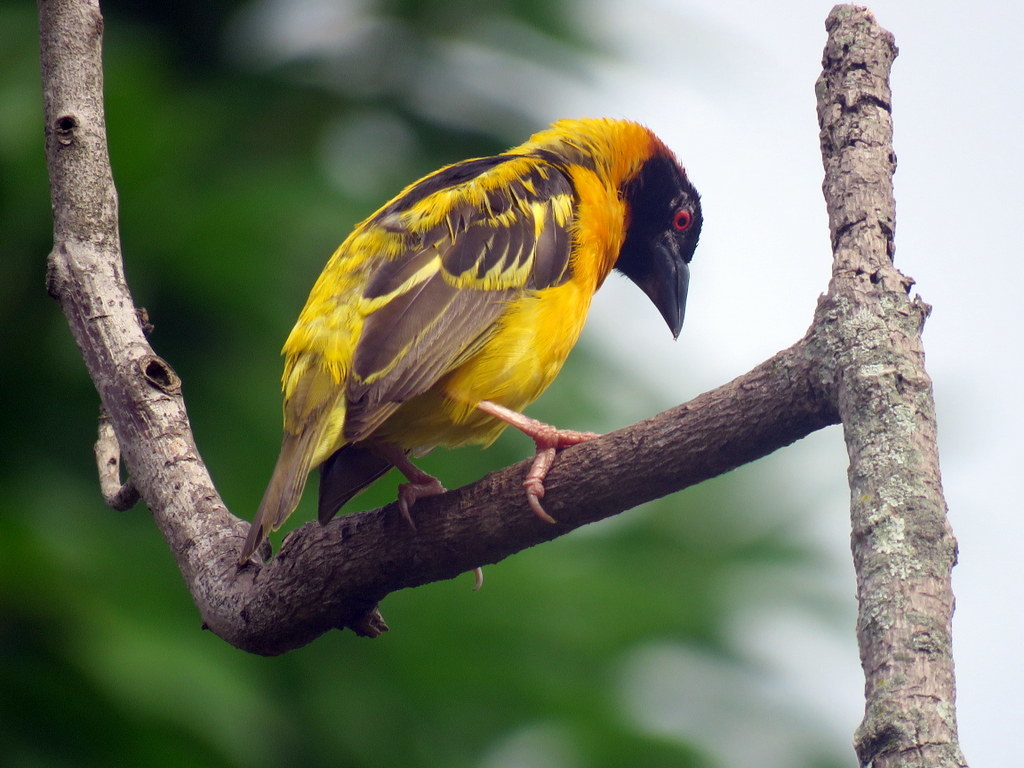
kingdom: Animalia
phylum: Chordata
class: Aves
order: Passeriformes
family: Ploceidae
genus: Ploceus
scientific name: Ploceus cucullatus
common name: Village weaver
